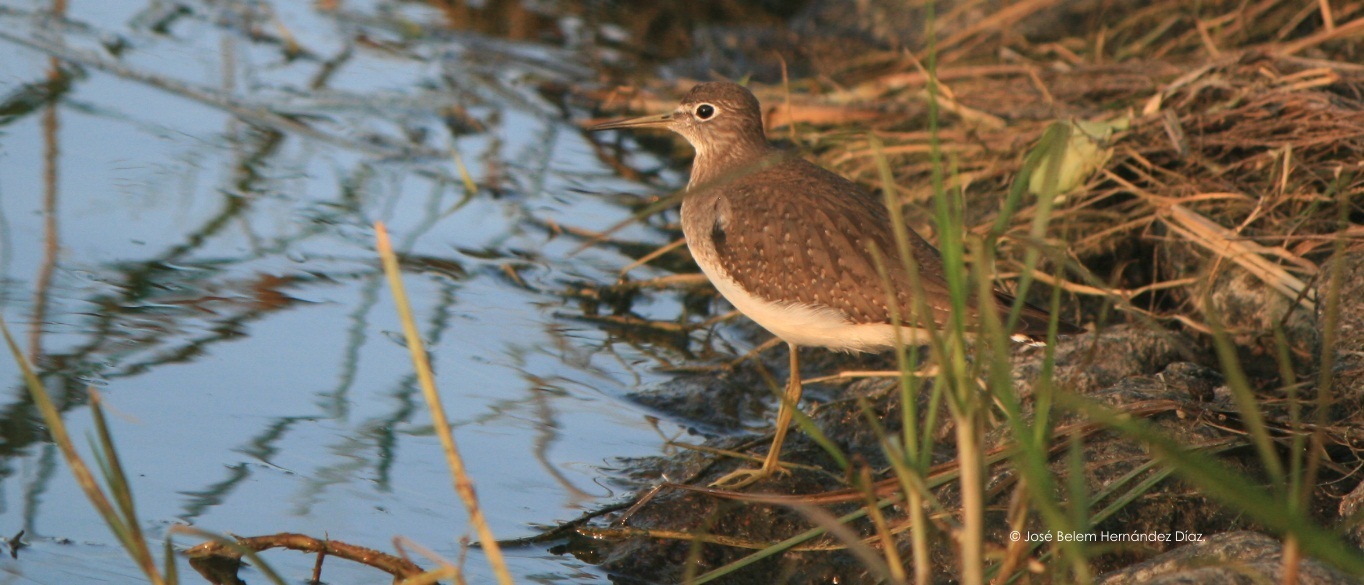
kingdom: Animalia
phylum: Chordata
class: Aves
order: Charadriiformes
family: Scolopacidae
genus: Tringa
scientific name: Tringa solitaria
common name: Solitary sandpiper
